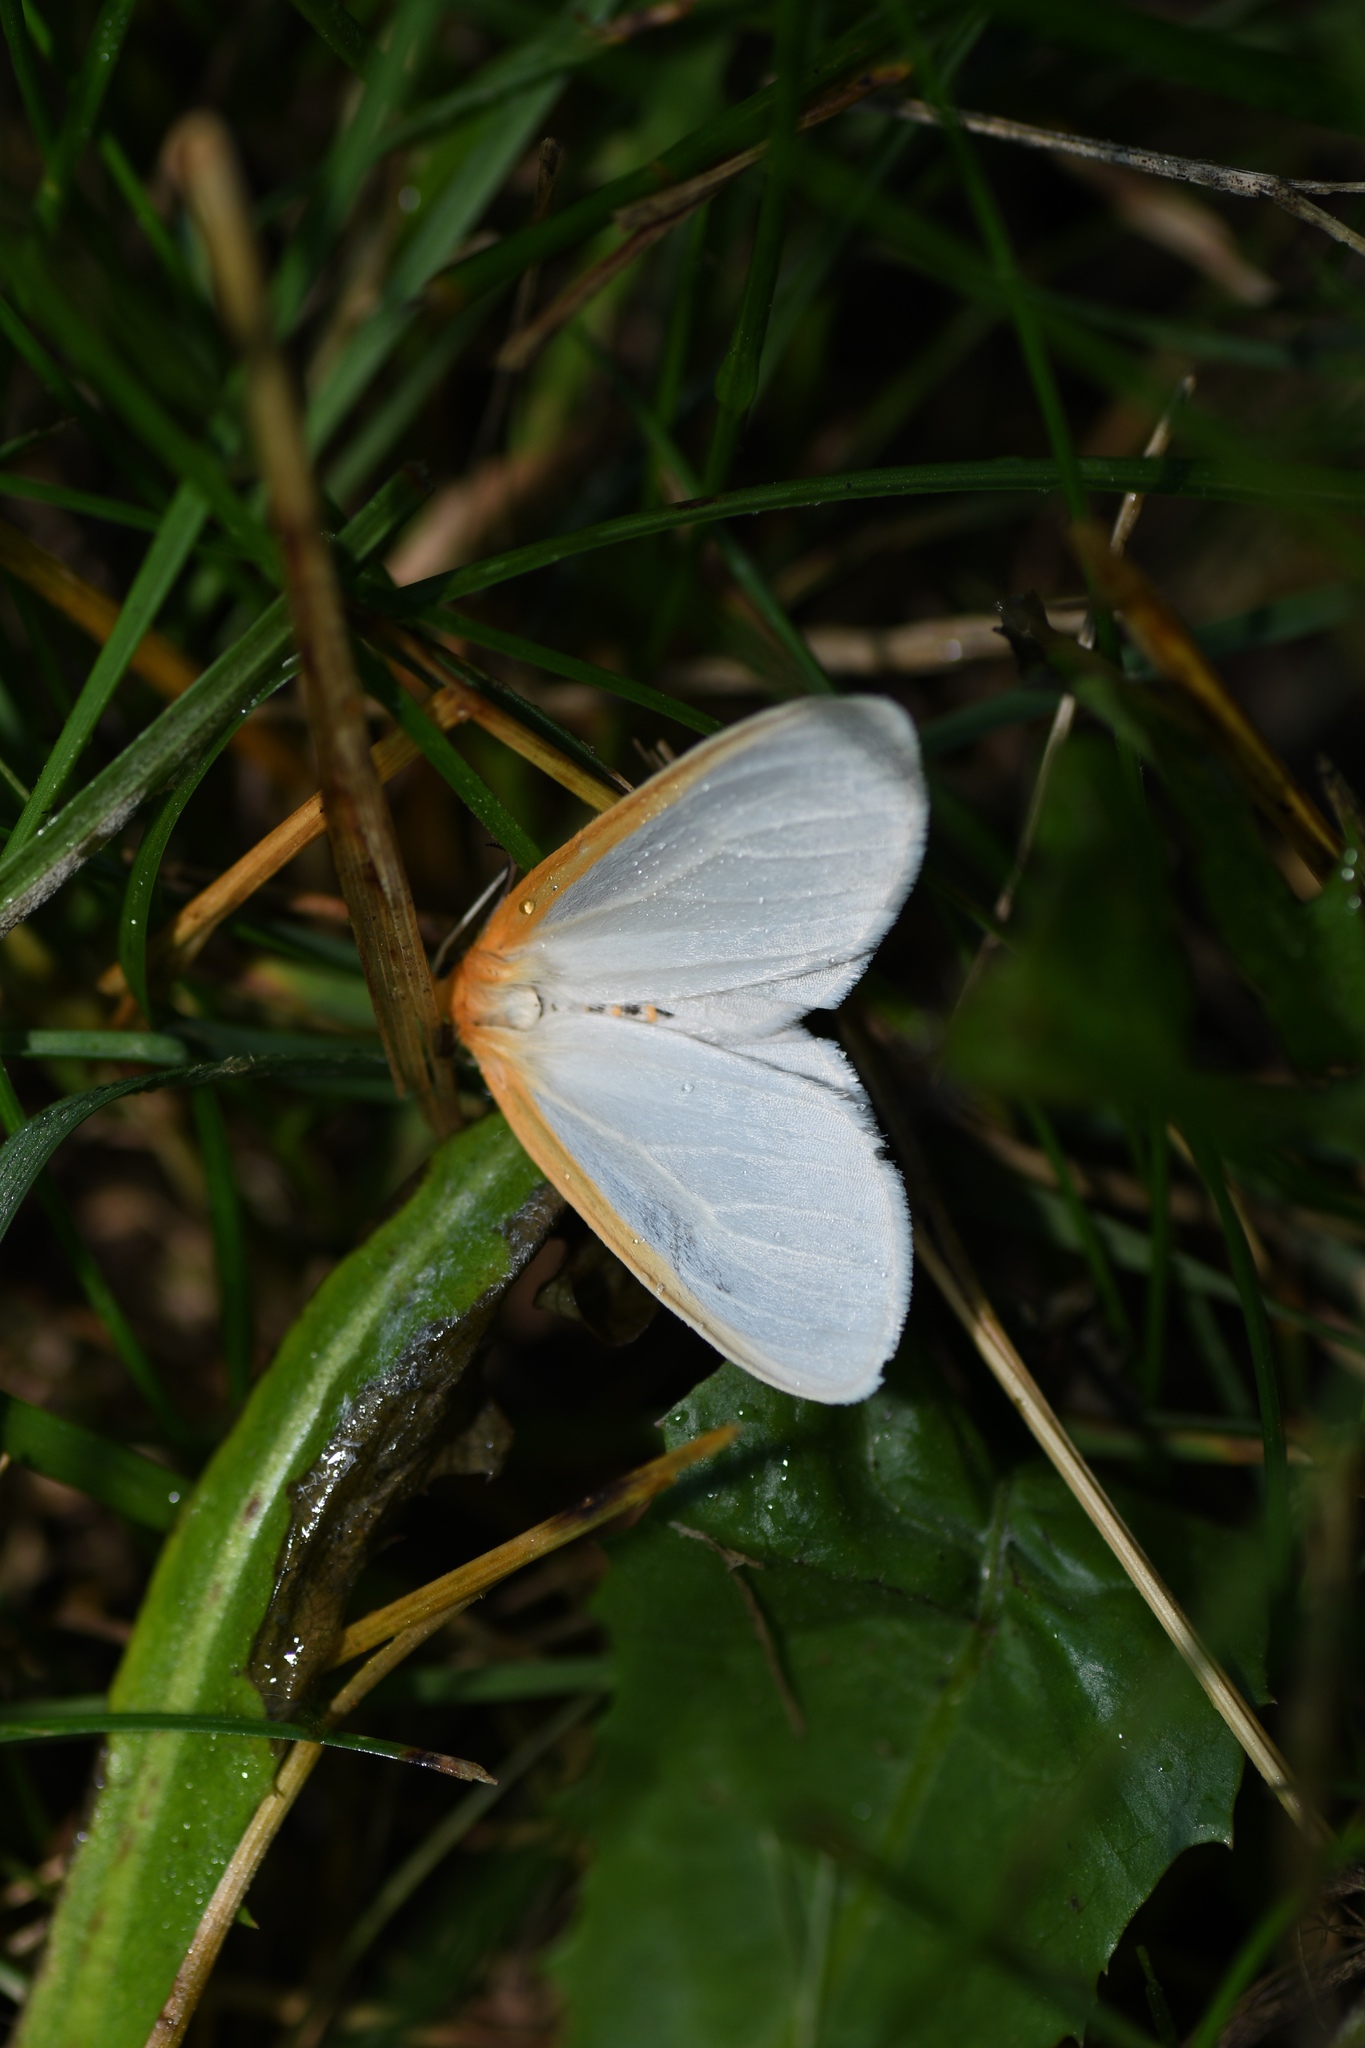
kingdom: Animalia
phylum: Arthropoda
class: Insecta
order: Lepidoptera
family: Erebidae
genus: Cycnia
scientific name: Cycnia tenera
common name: Delicate cycnia moth
